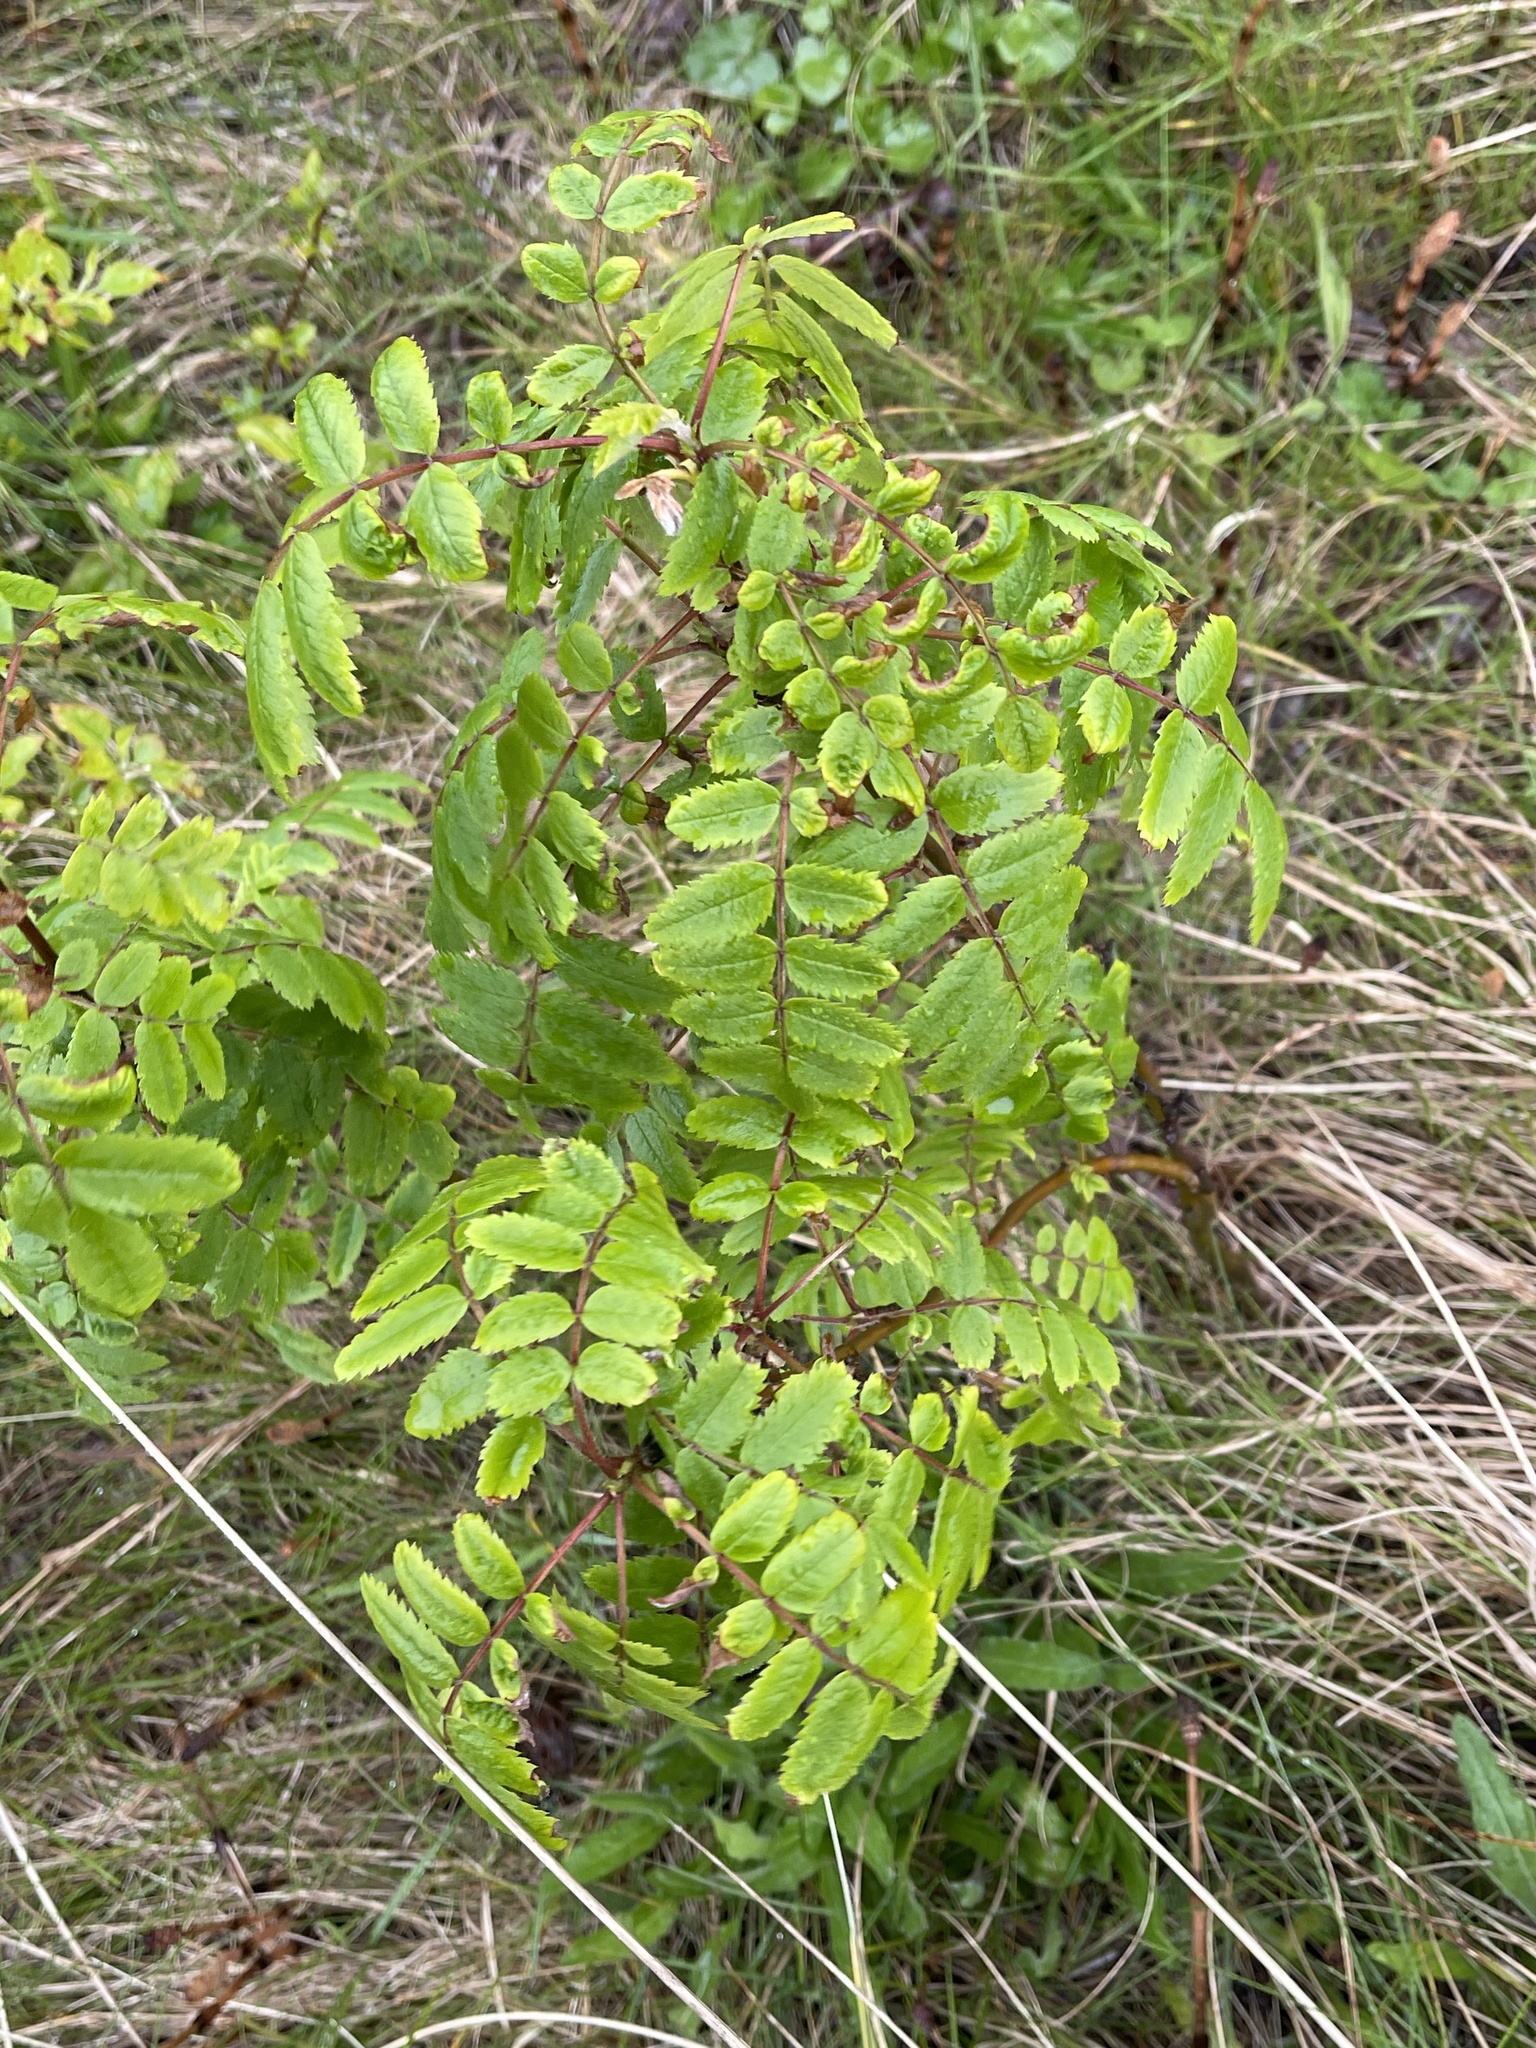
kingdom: Plantae
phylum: Tracheophyta
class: Magnoliopsida
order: Rosales
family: Rosaceae
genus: Sorbus
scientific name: Sorbus aucuparia
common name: Rowan
